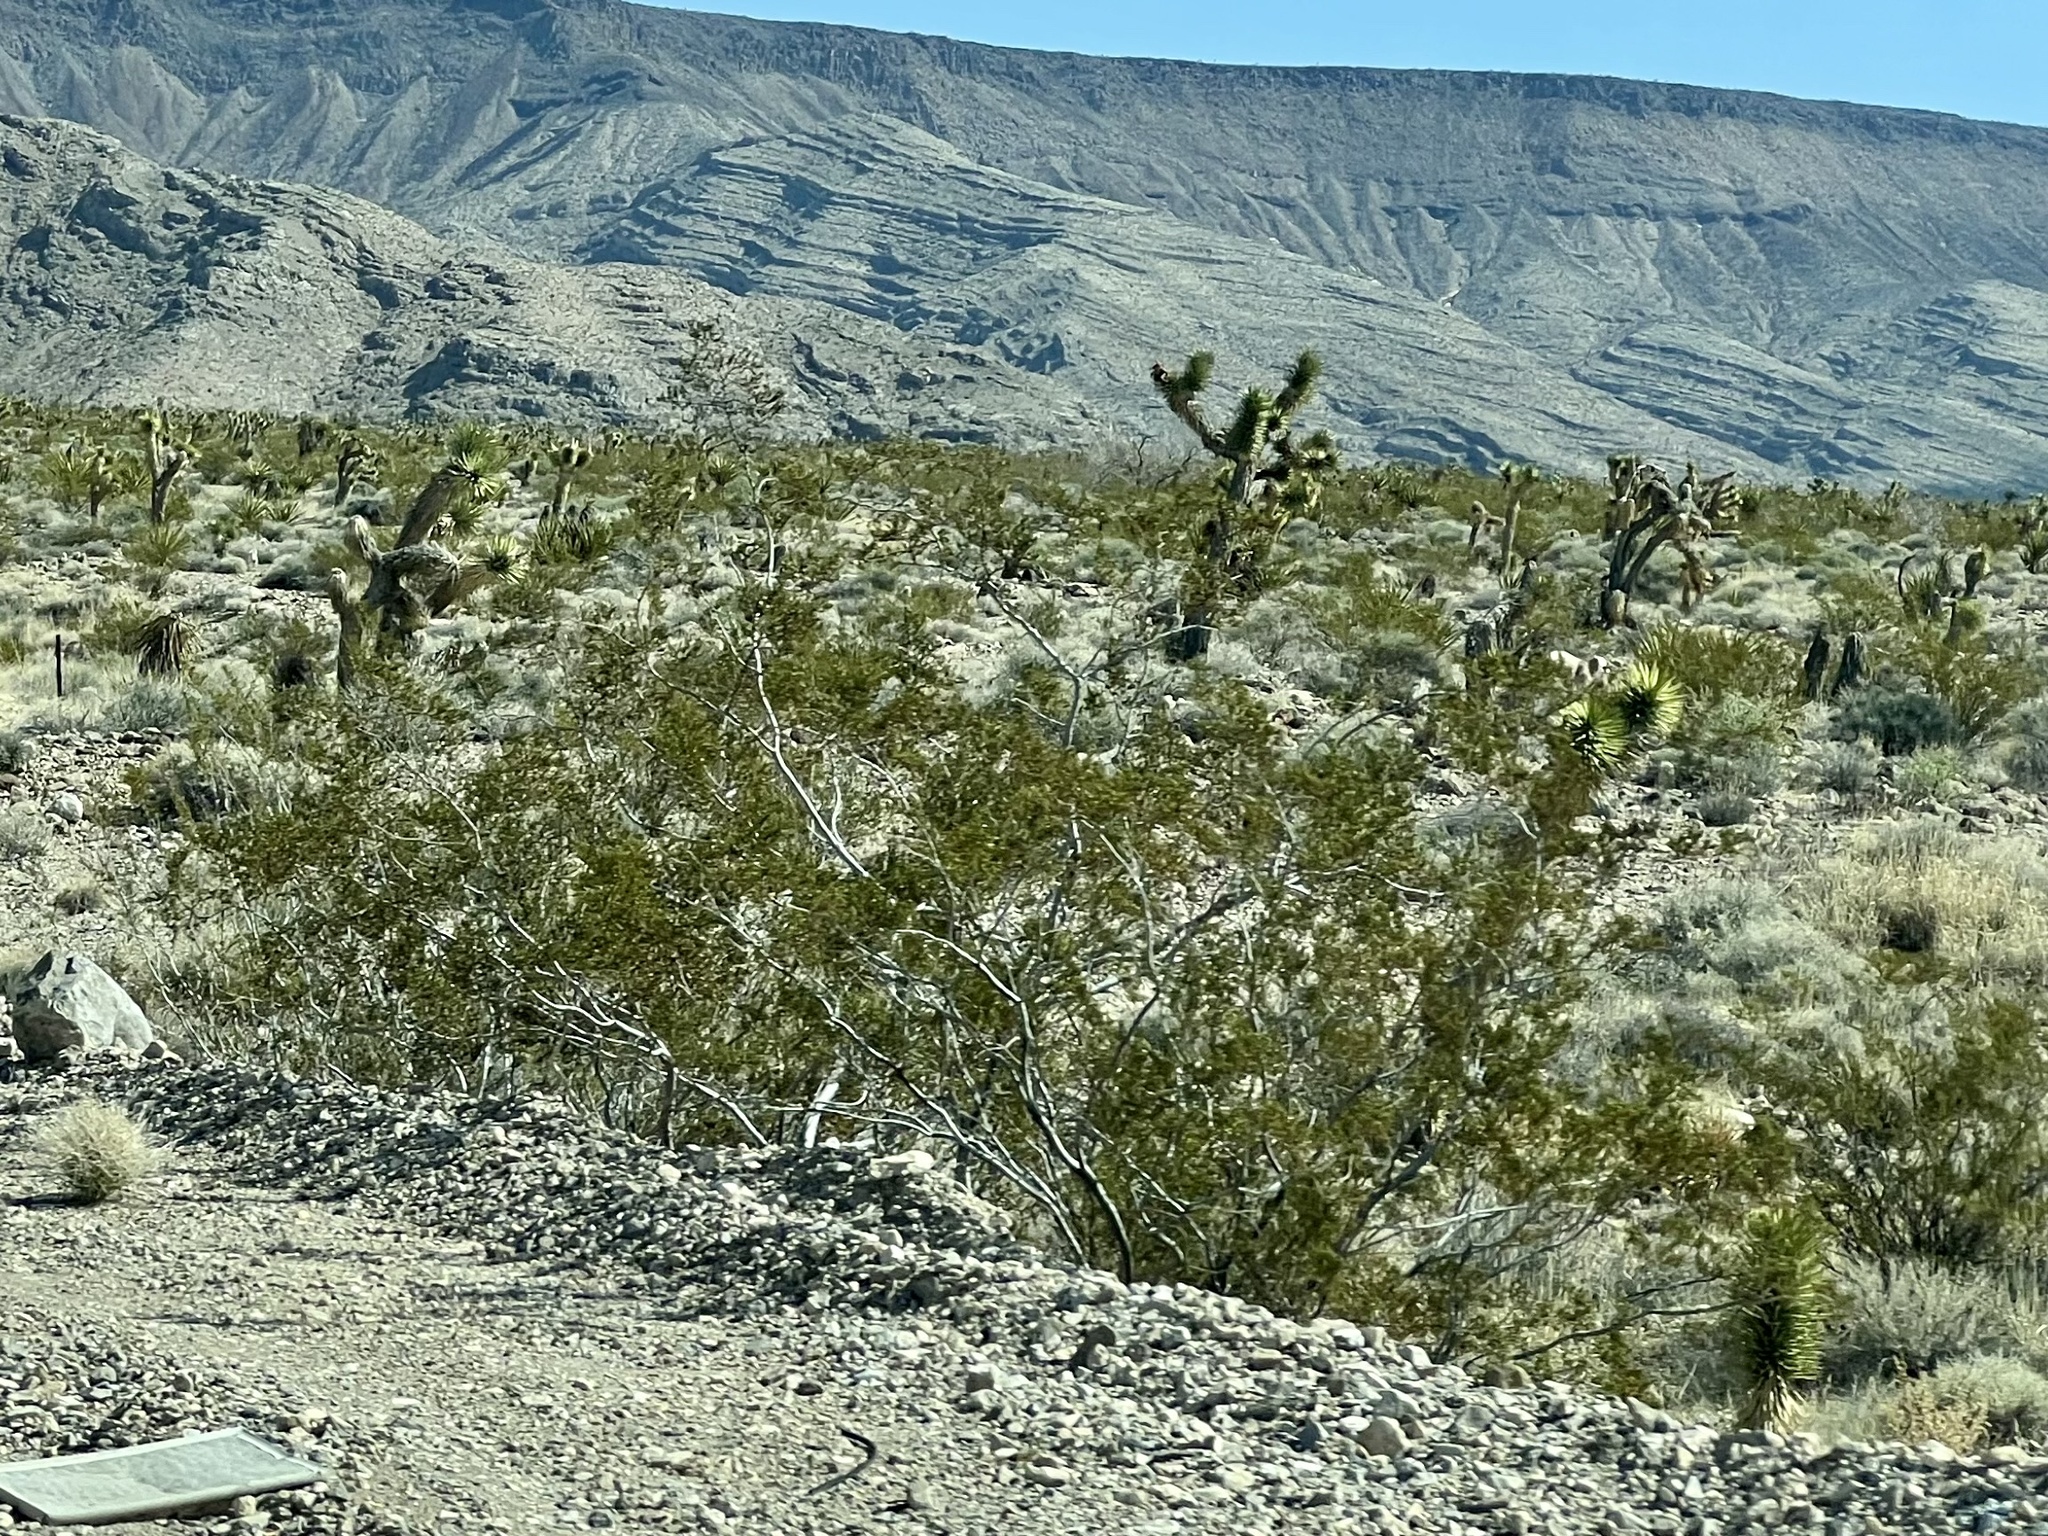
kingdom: Plantae
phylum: Tracheophyta
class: Magnoliopsida
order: Zygophyllales
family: Zygophyllaceae
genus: Larrea
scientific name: Larrea tridentata
